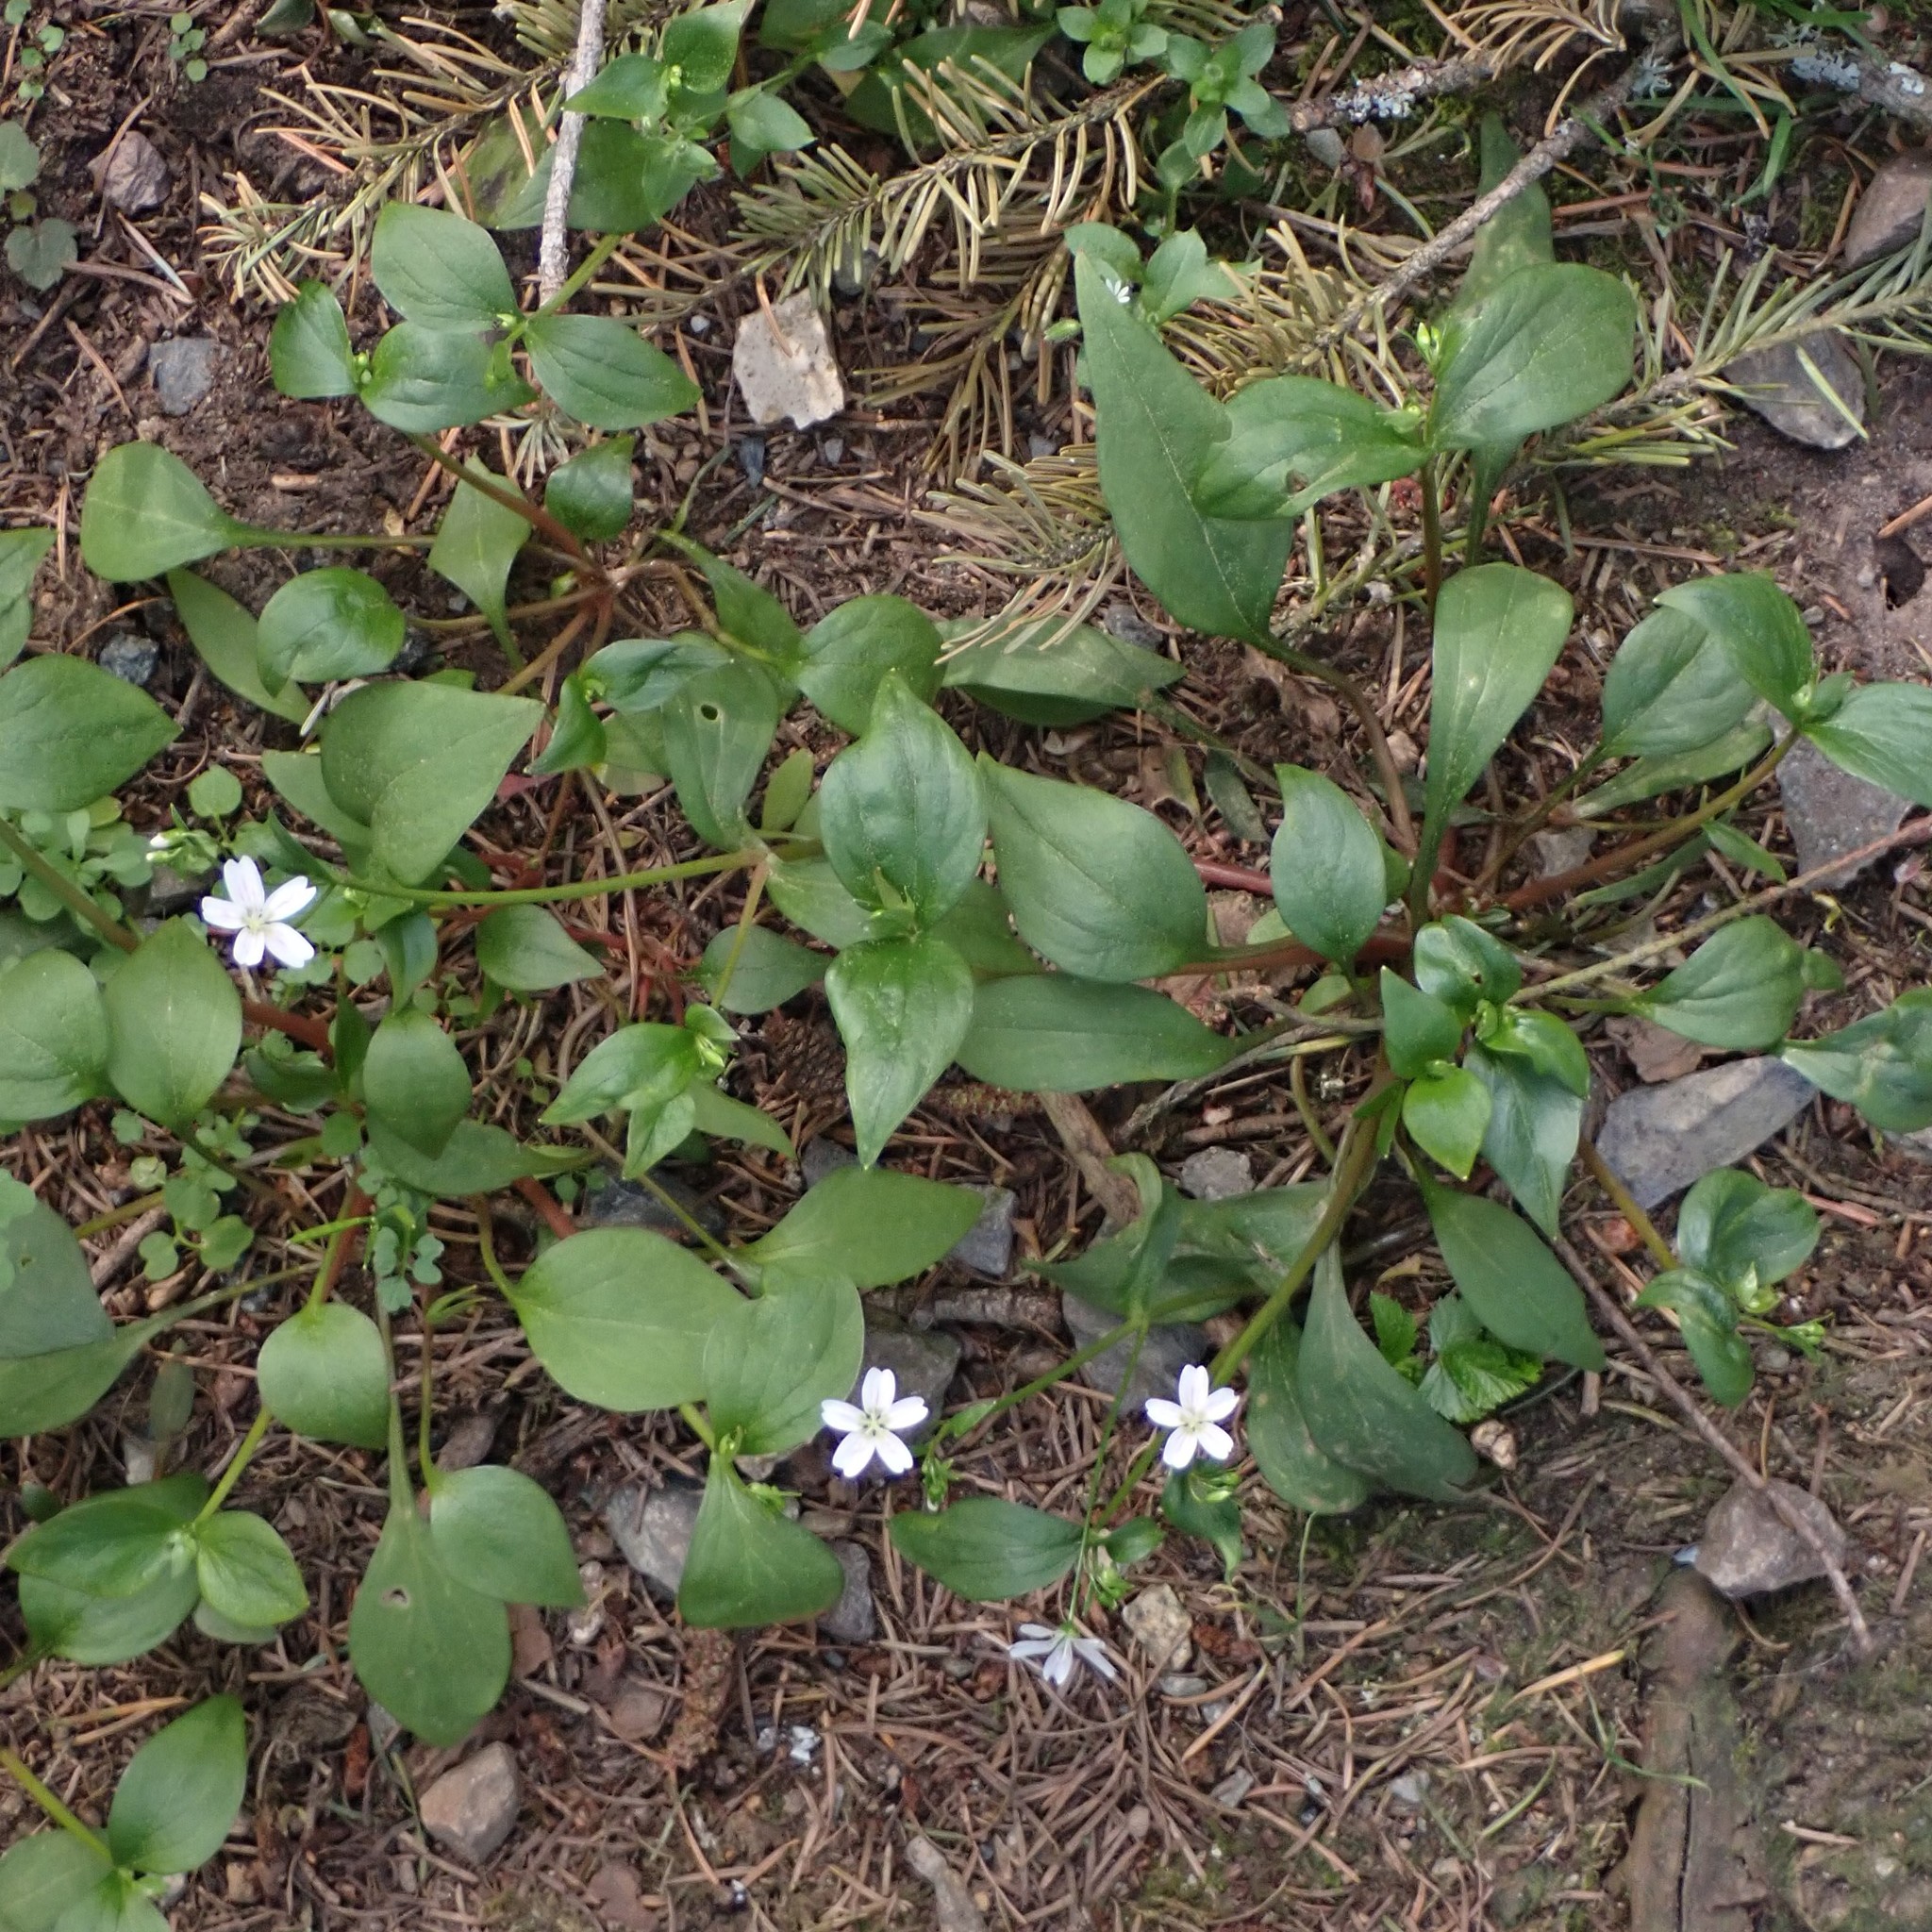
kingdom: Plantae
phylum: Tracheophyta
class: Magnoliopsida
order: Caryophyllales
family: Montiaceae
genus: Claytonia
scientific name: Claytonia sibirica
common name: Pink purslane
